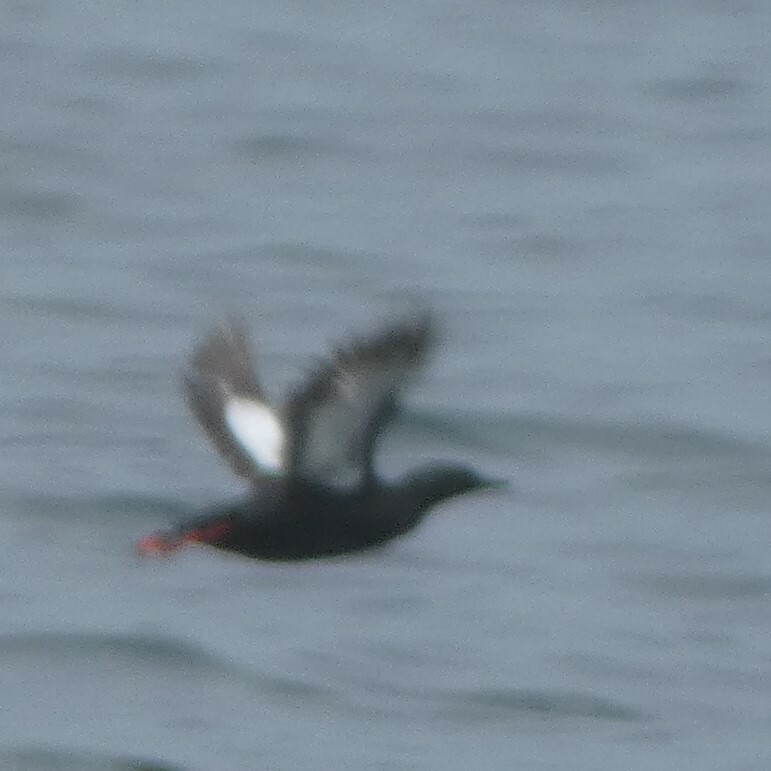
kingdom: Animalia
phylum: Chordata
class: Aves
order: Charadriiformes
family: Alcidae
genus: Cepphus
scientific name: Cepphus grylle
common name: Black guillemot
